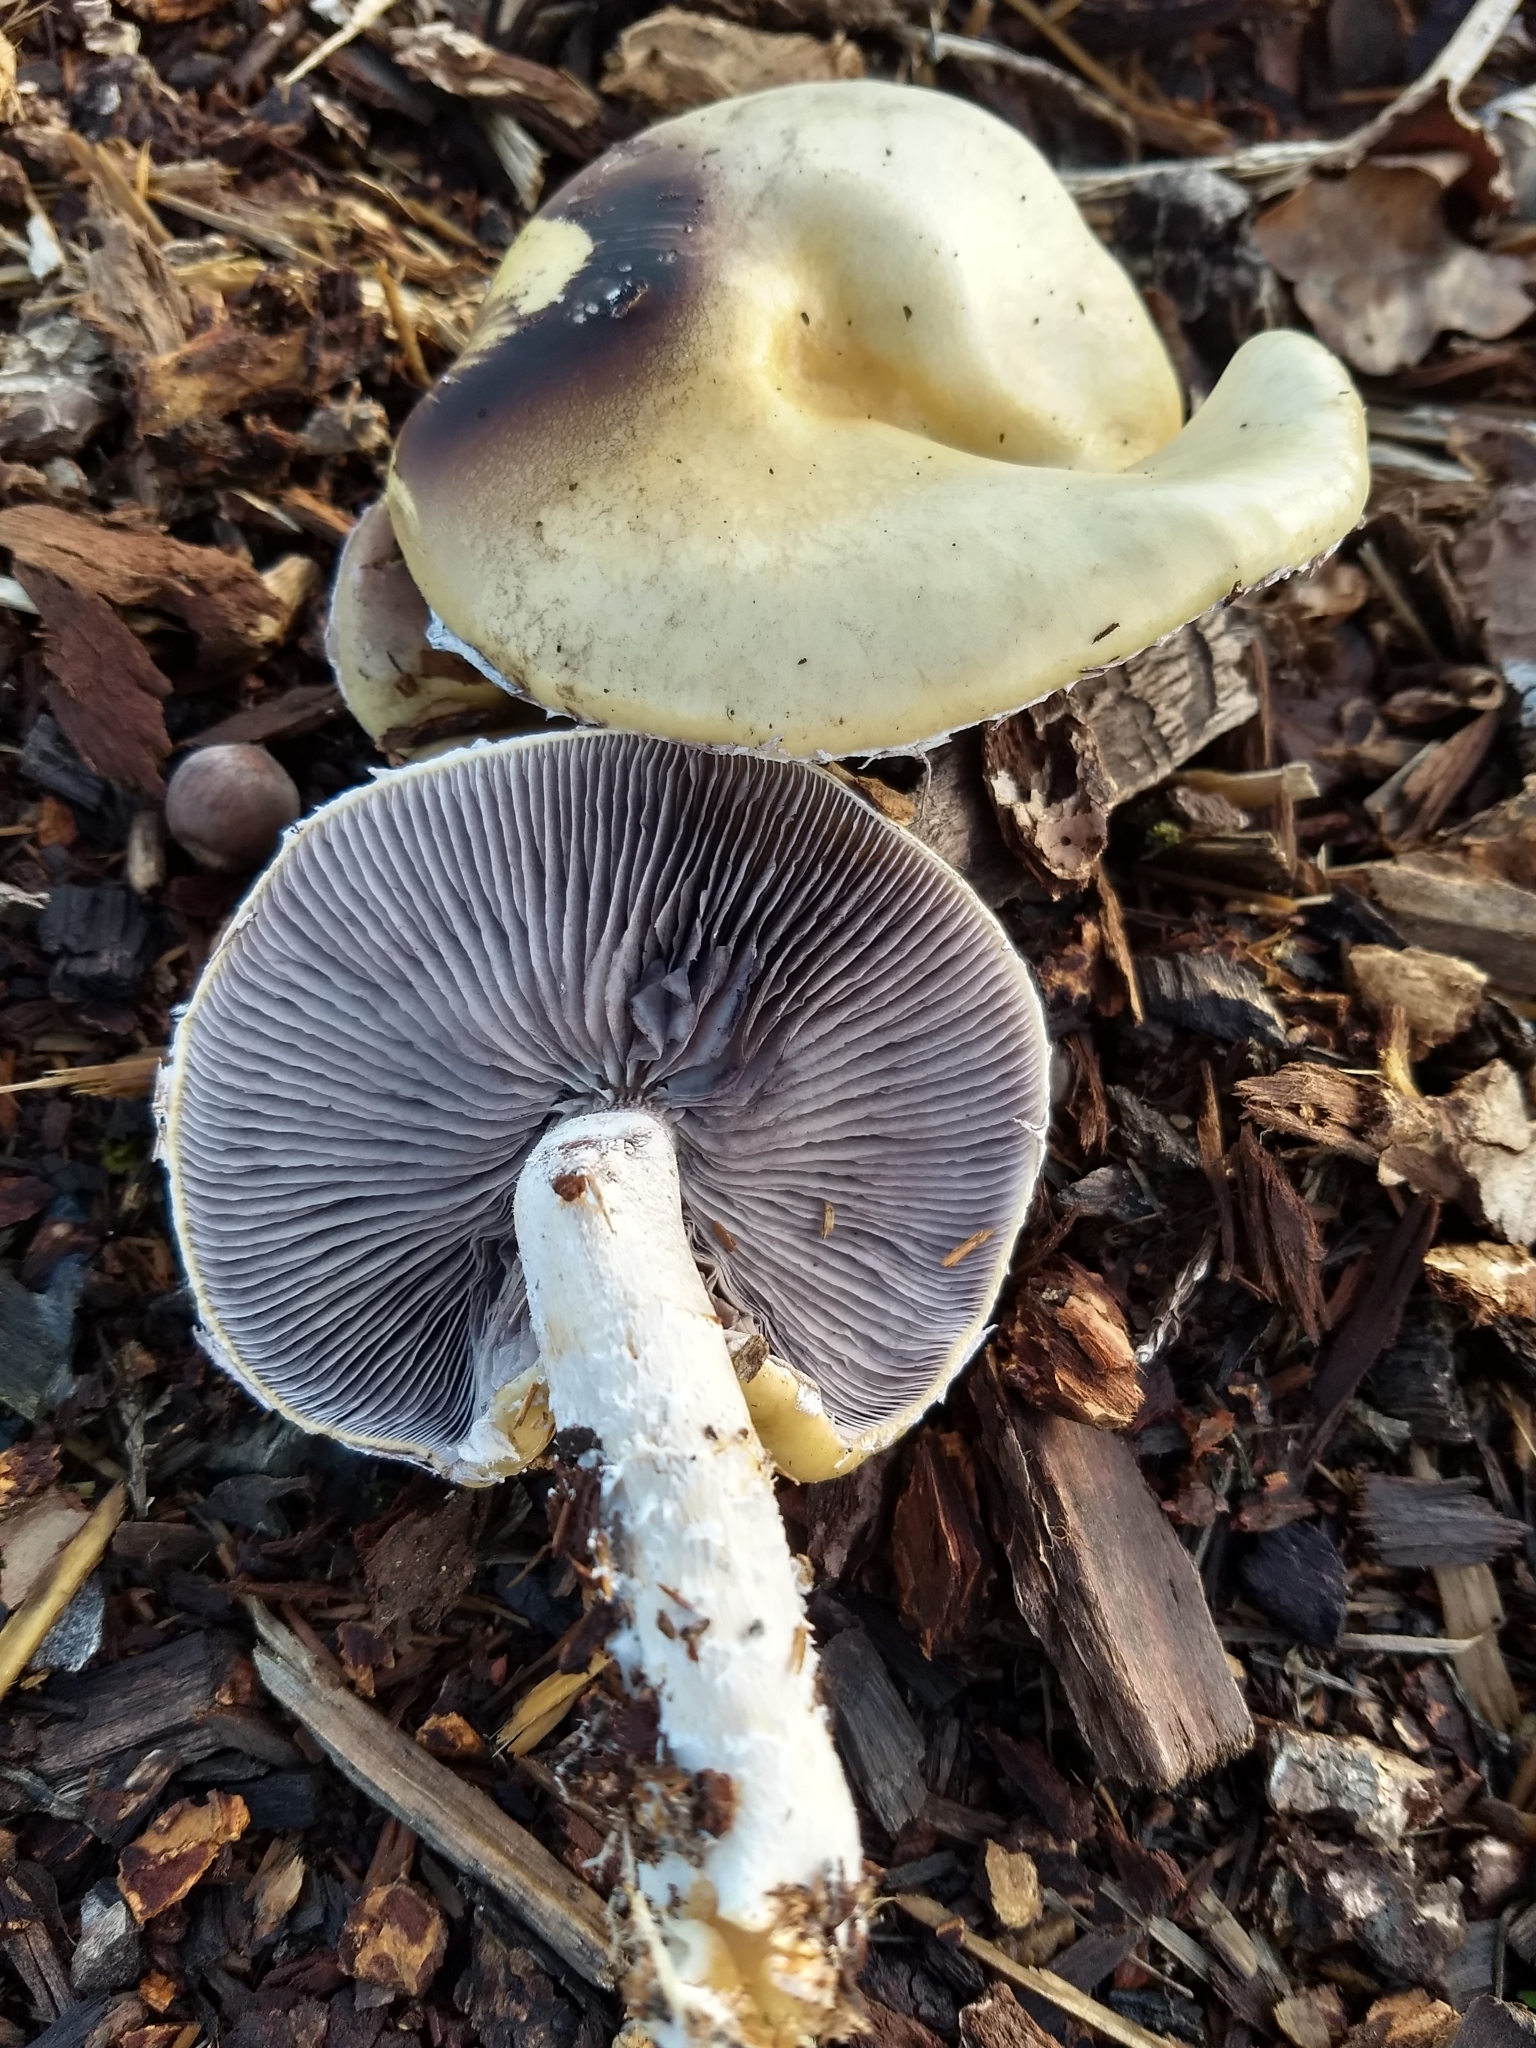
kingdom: Fungi
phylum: Basidiomycota
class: Agaricomycetes
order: Agaricales
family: Strophariaceae
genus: Stropharia
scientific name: Stropharia ambigua
